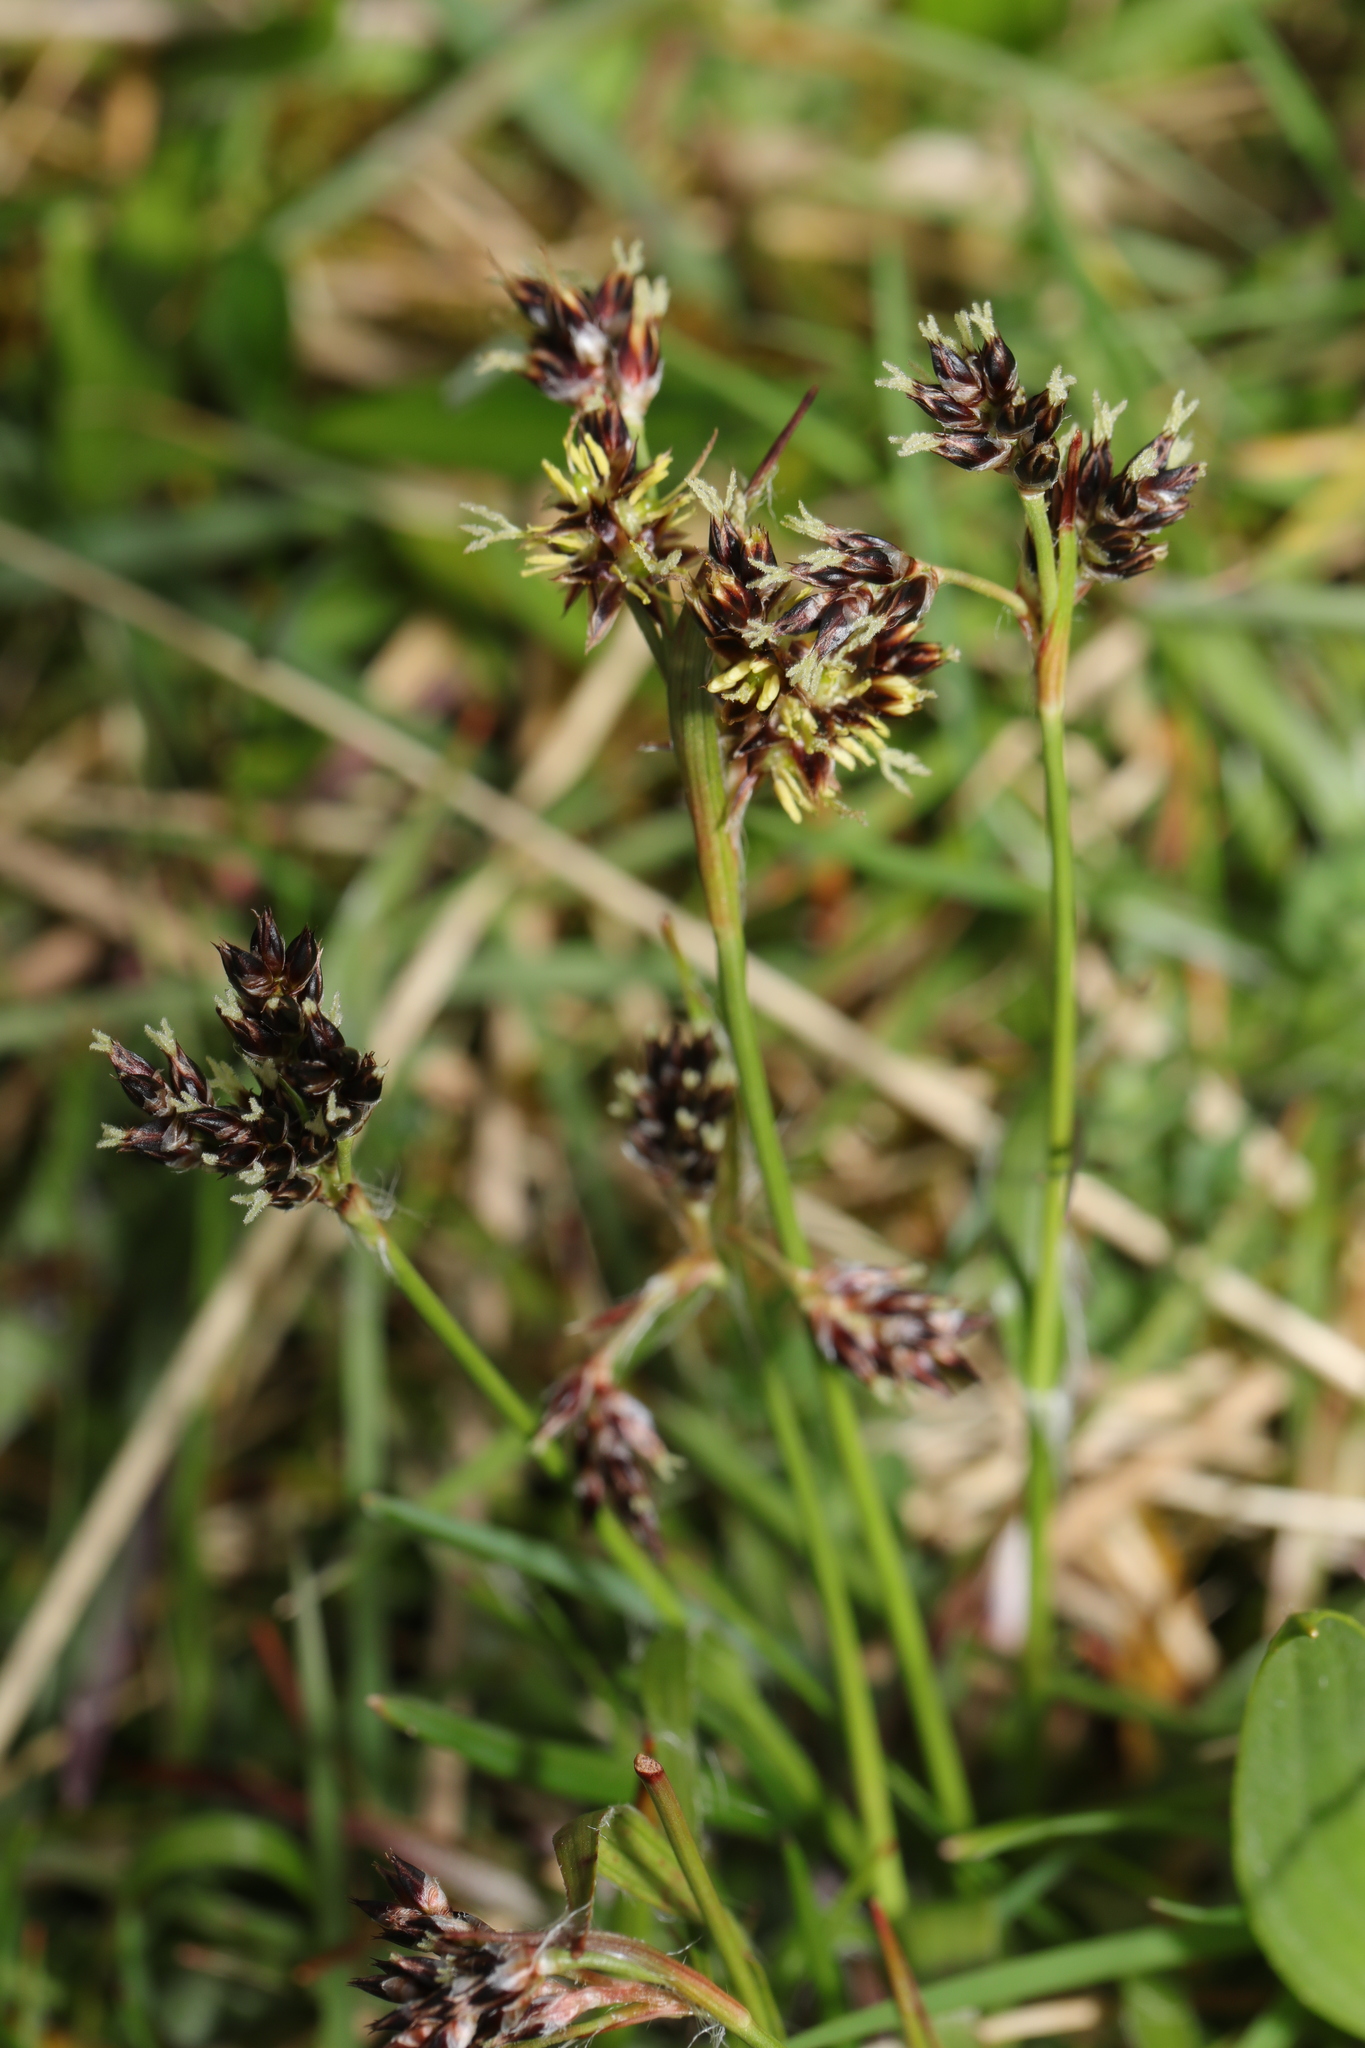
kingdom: Plantae
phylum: Tracheophyta
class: Liliopsida
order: Poales
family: Juncaceae
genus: Luzula
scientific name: Luzula campestris
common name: Field wood-rush
